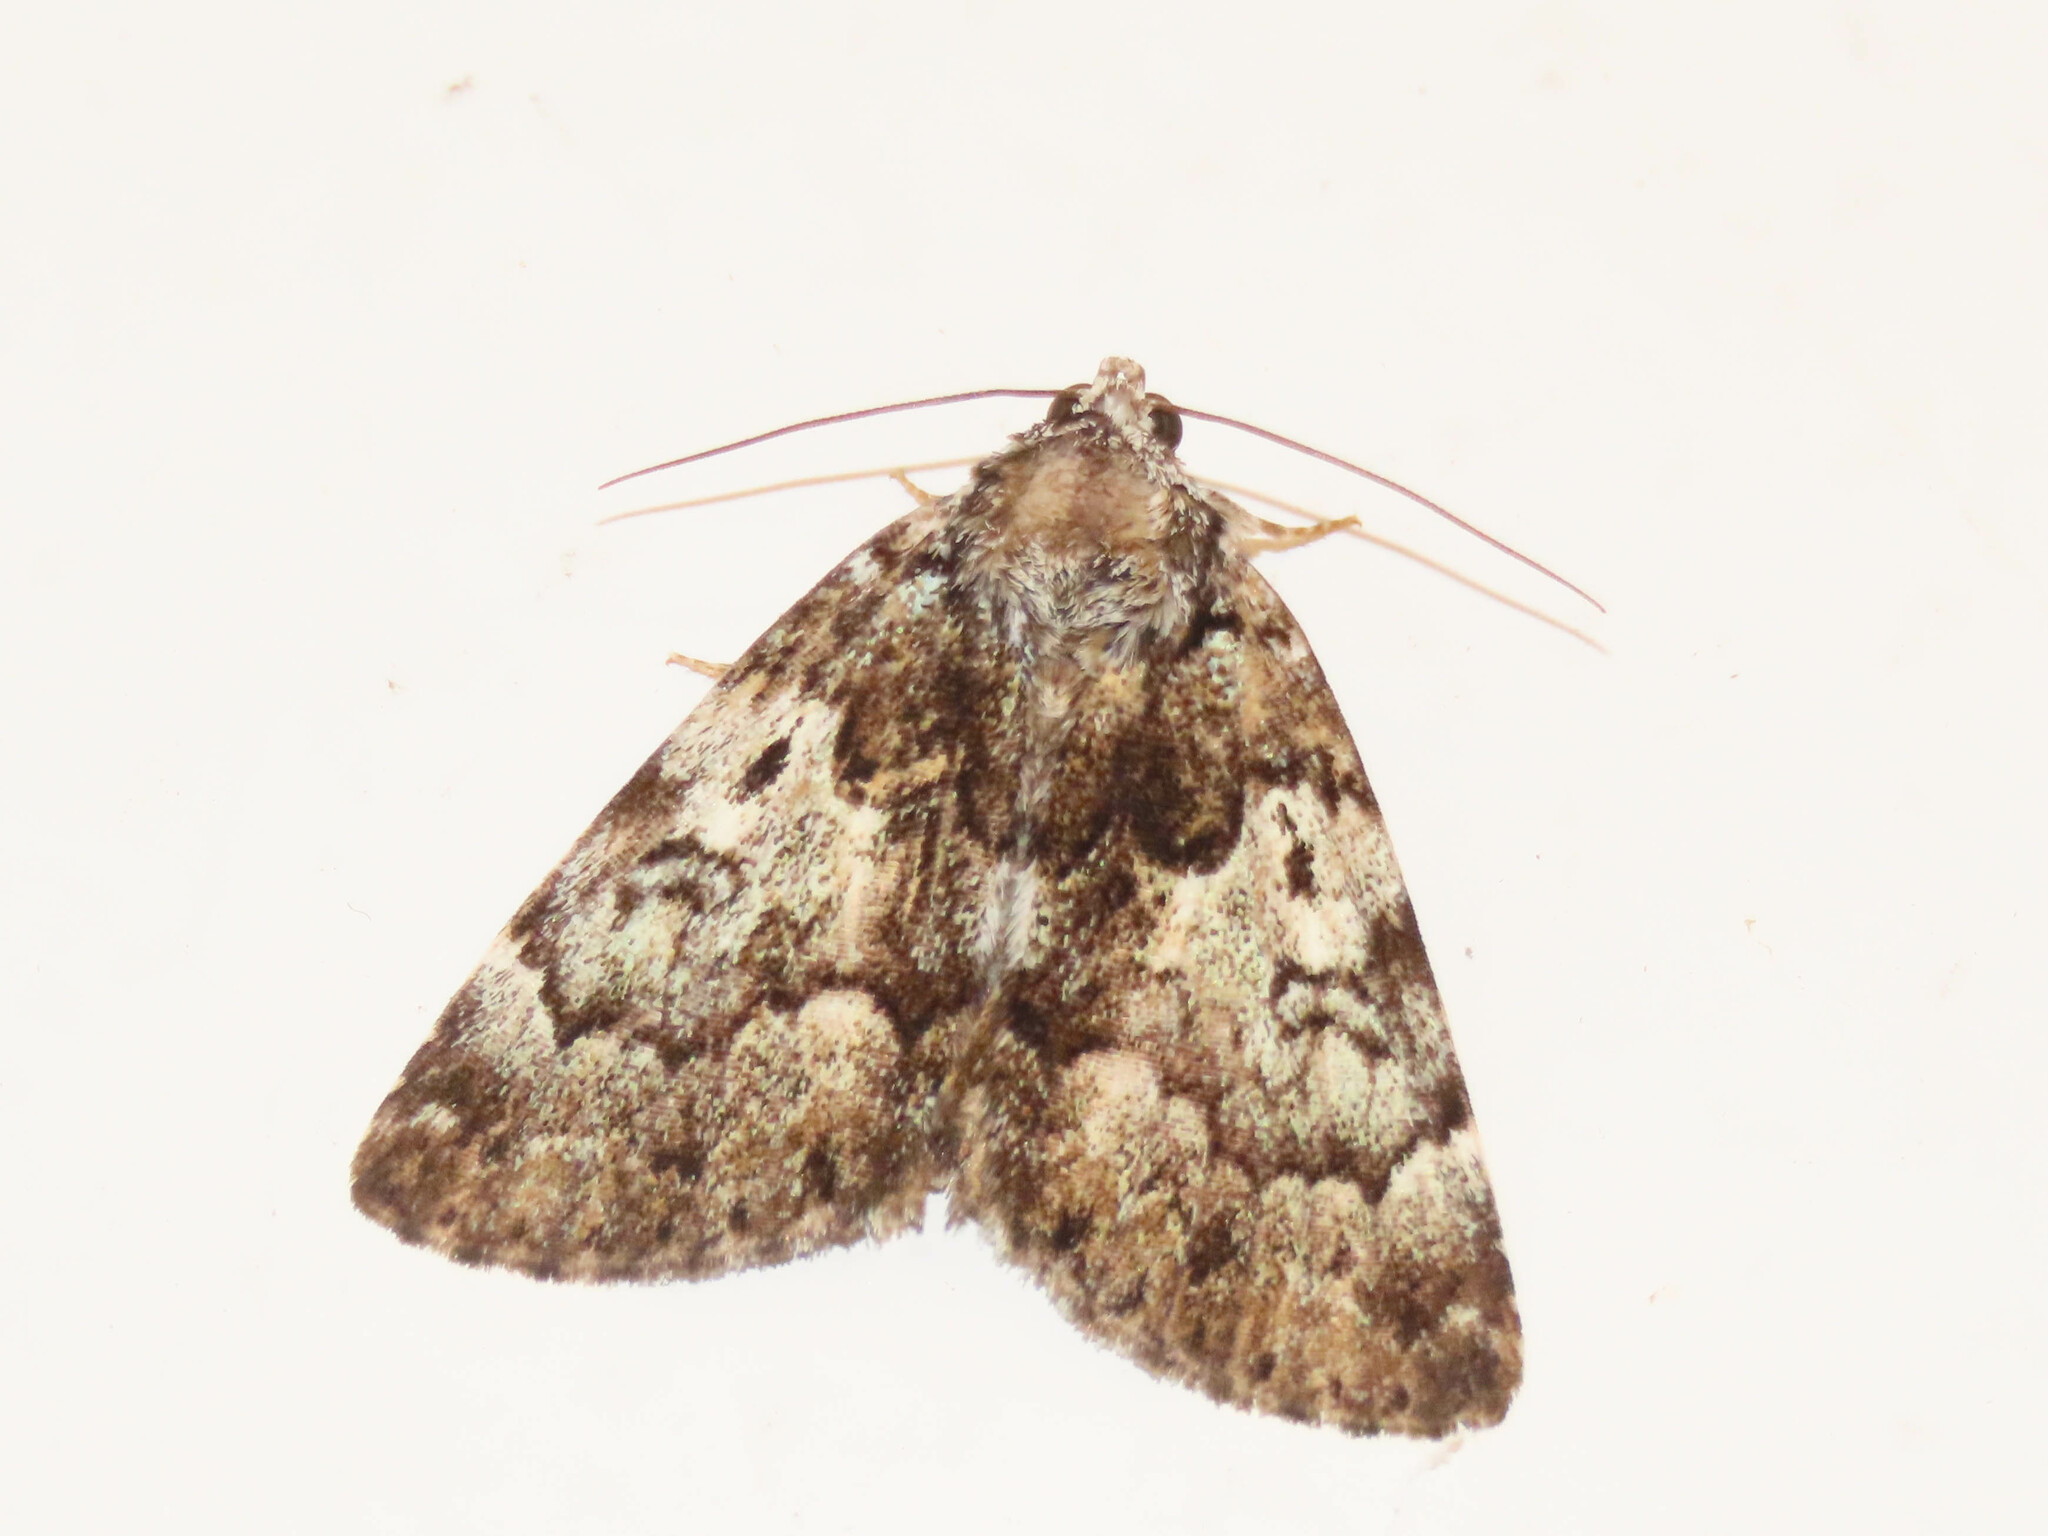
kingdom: Animalia
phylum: Arthropoda
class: Insecta
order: Lepidoptera
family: Erebidae
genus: Allotria
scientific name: Allotria elonympha
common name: False underwing
